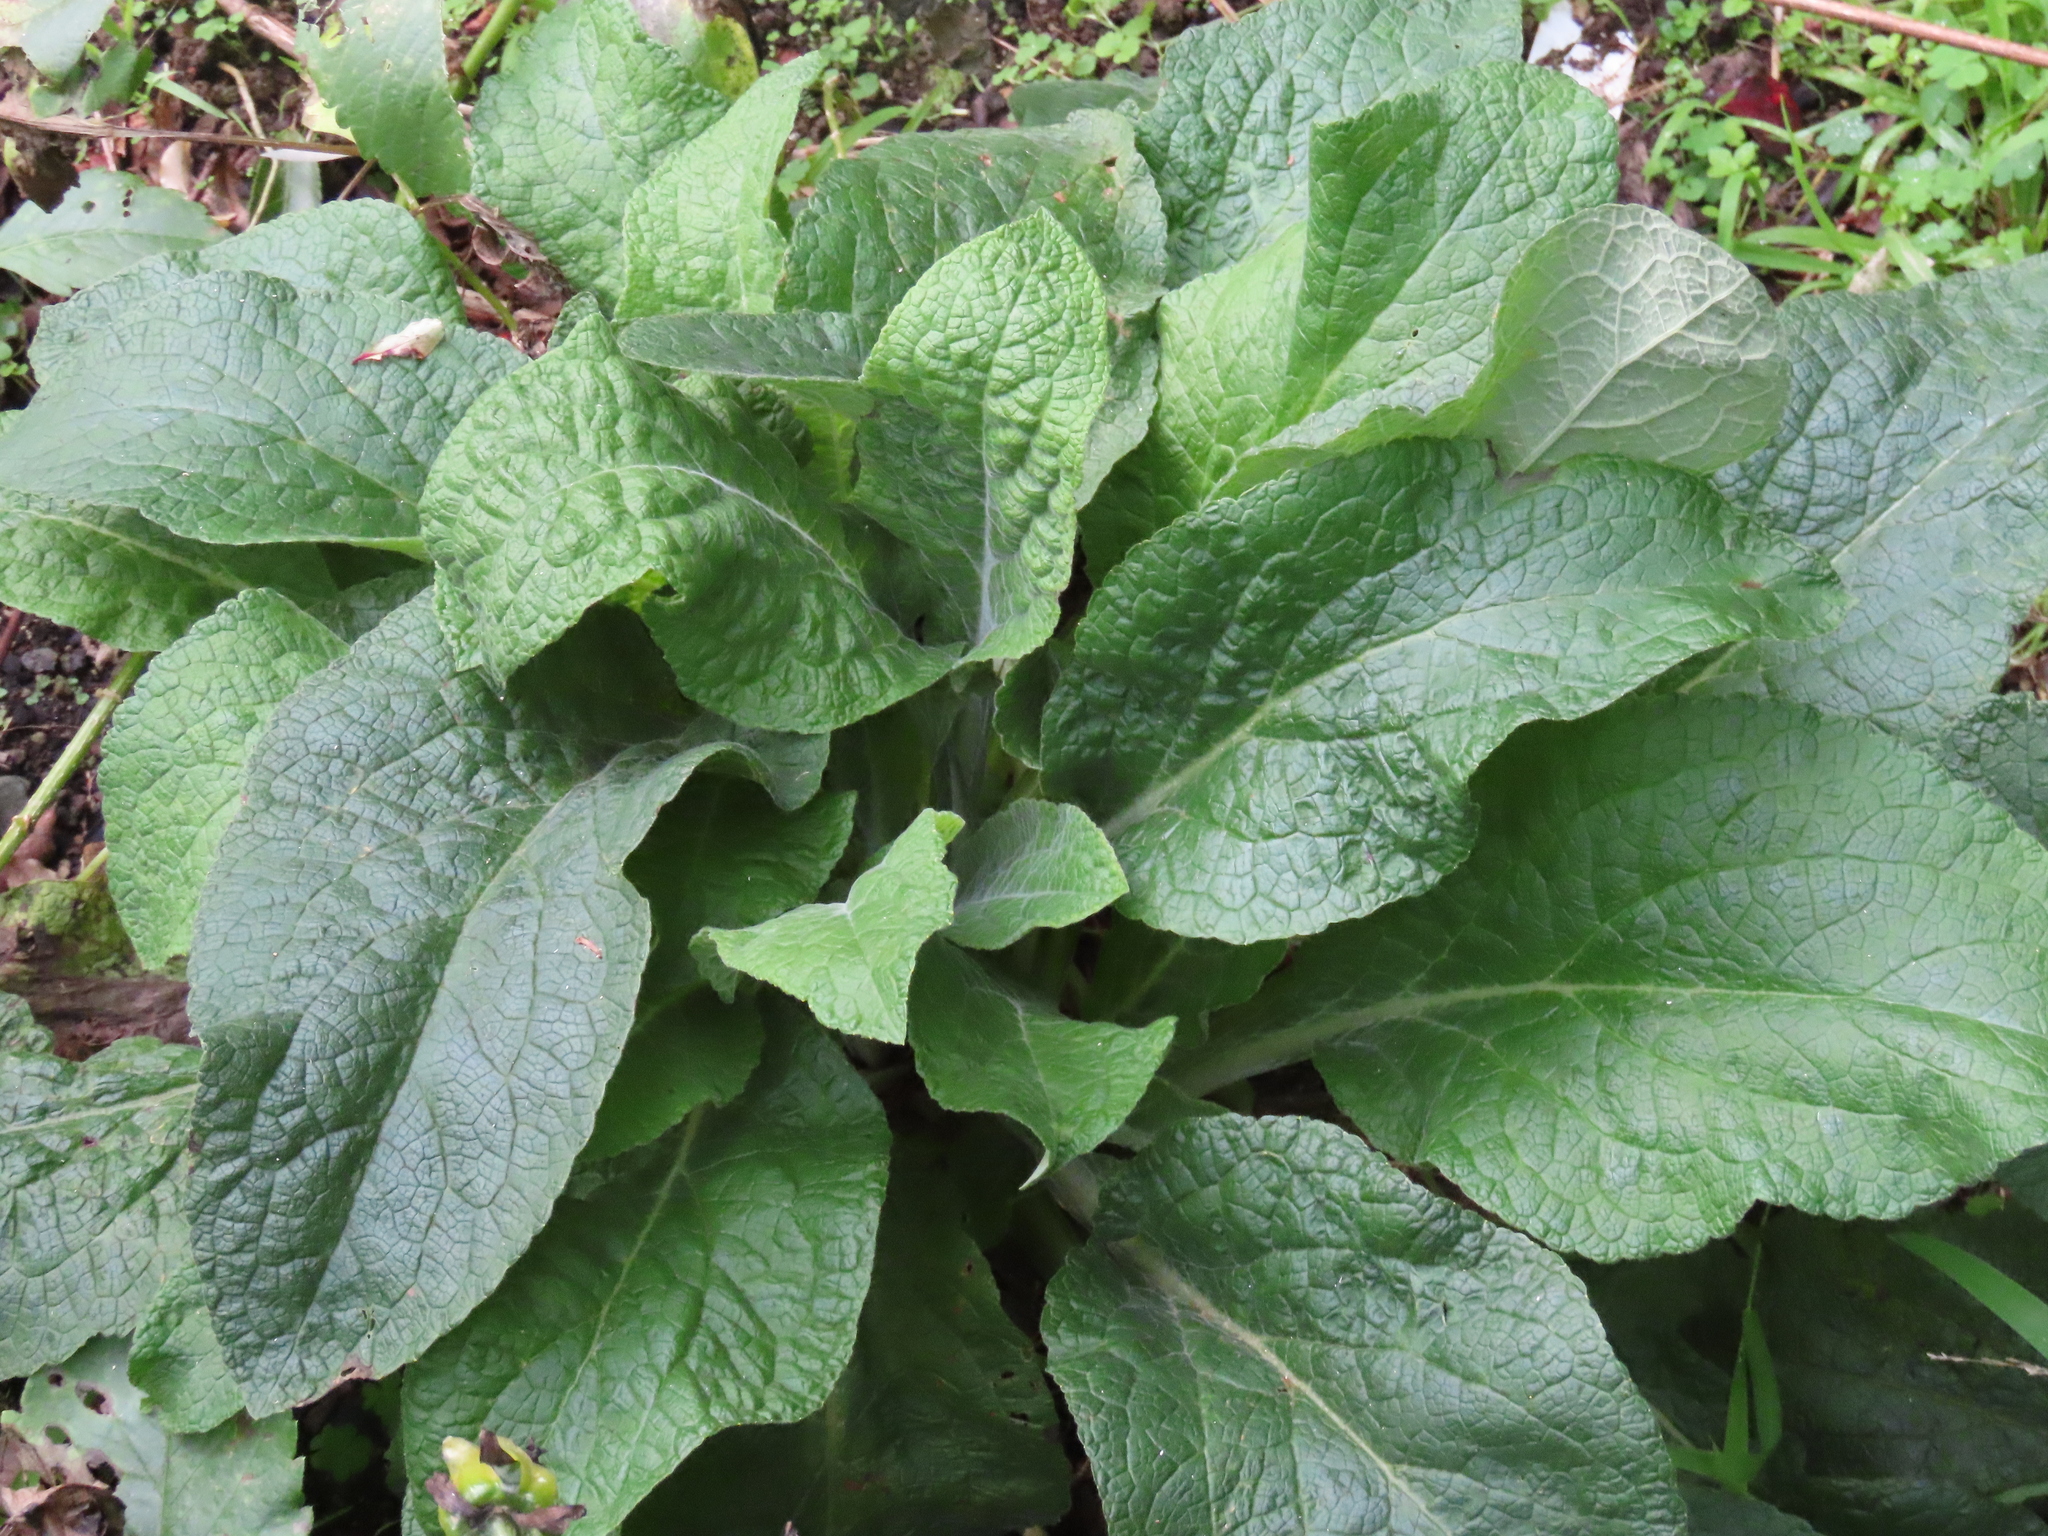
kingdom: Plantae
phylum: Tracheophyta
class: Magnoliopsida
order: Lamiales
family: Plantaginaceae
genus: Digitalis
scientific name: Digitalis purpurea
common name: Foxglove
